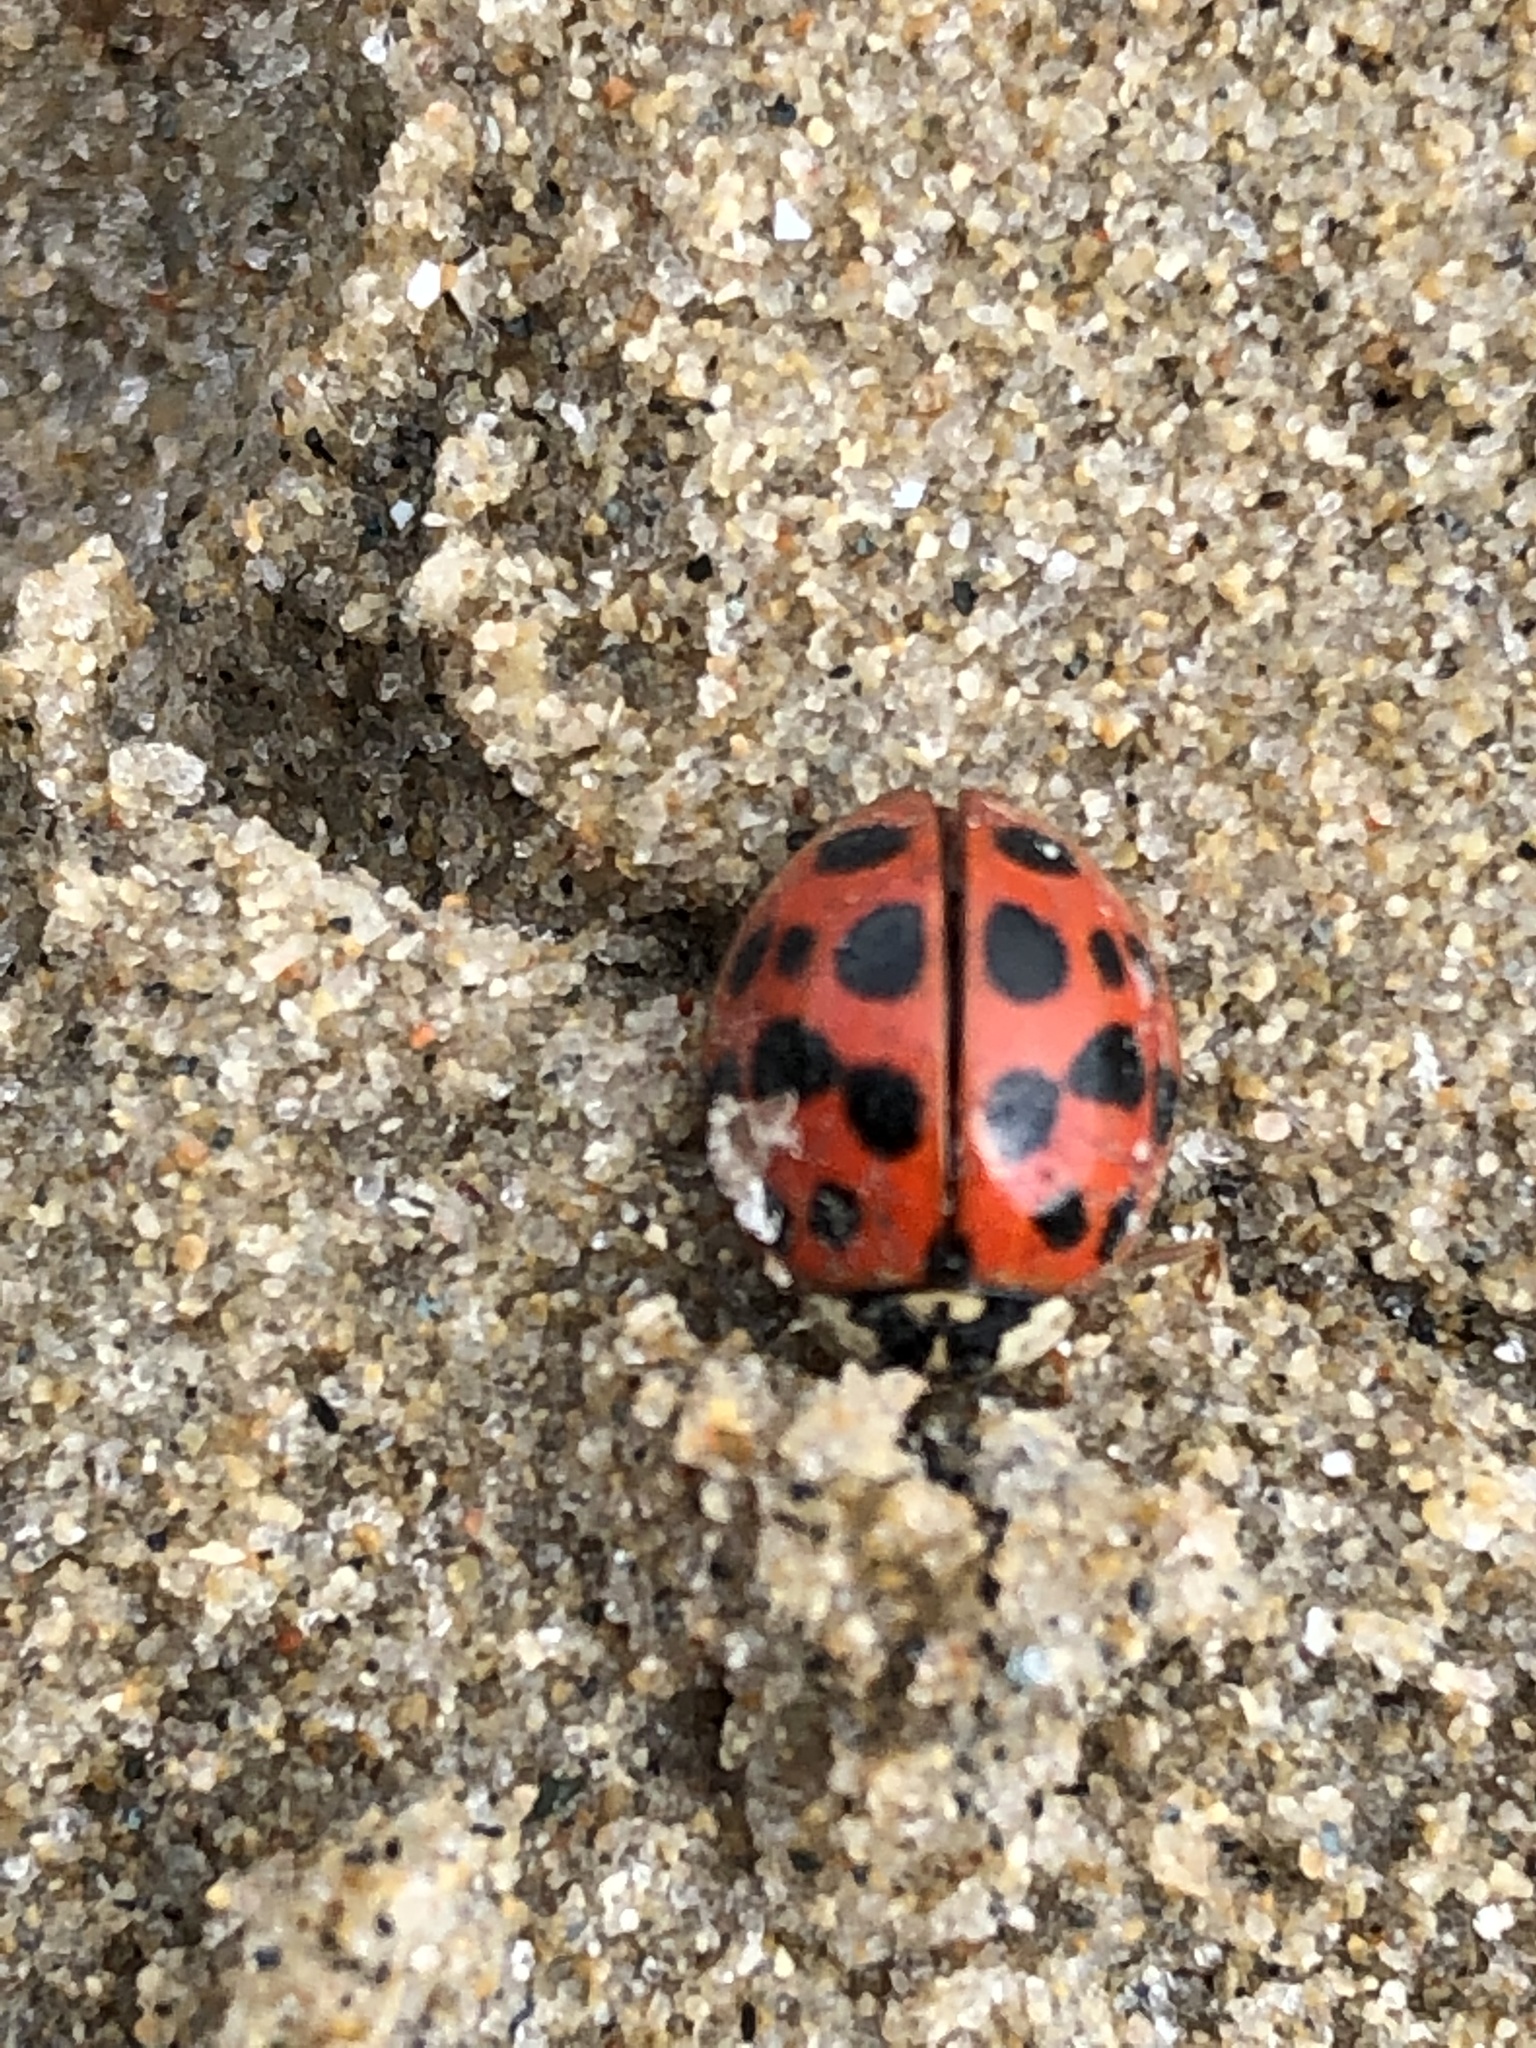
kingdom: Animalia
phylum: Arthropoda
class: Insecta
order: Coleoptera
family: Coccinellidae
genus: Harmonia
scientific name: Harmonia axyridis
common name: Harlequin ladybird
